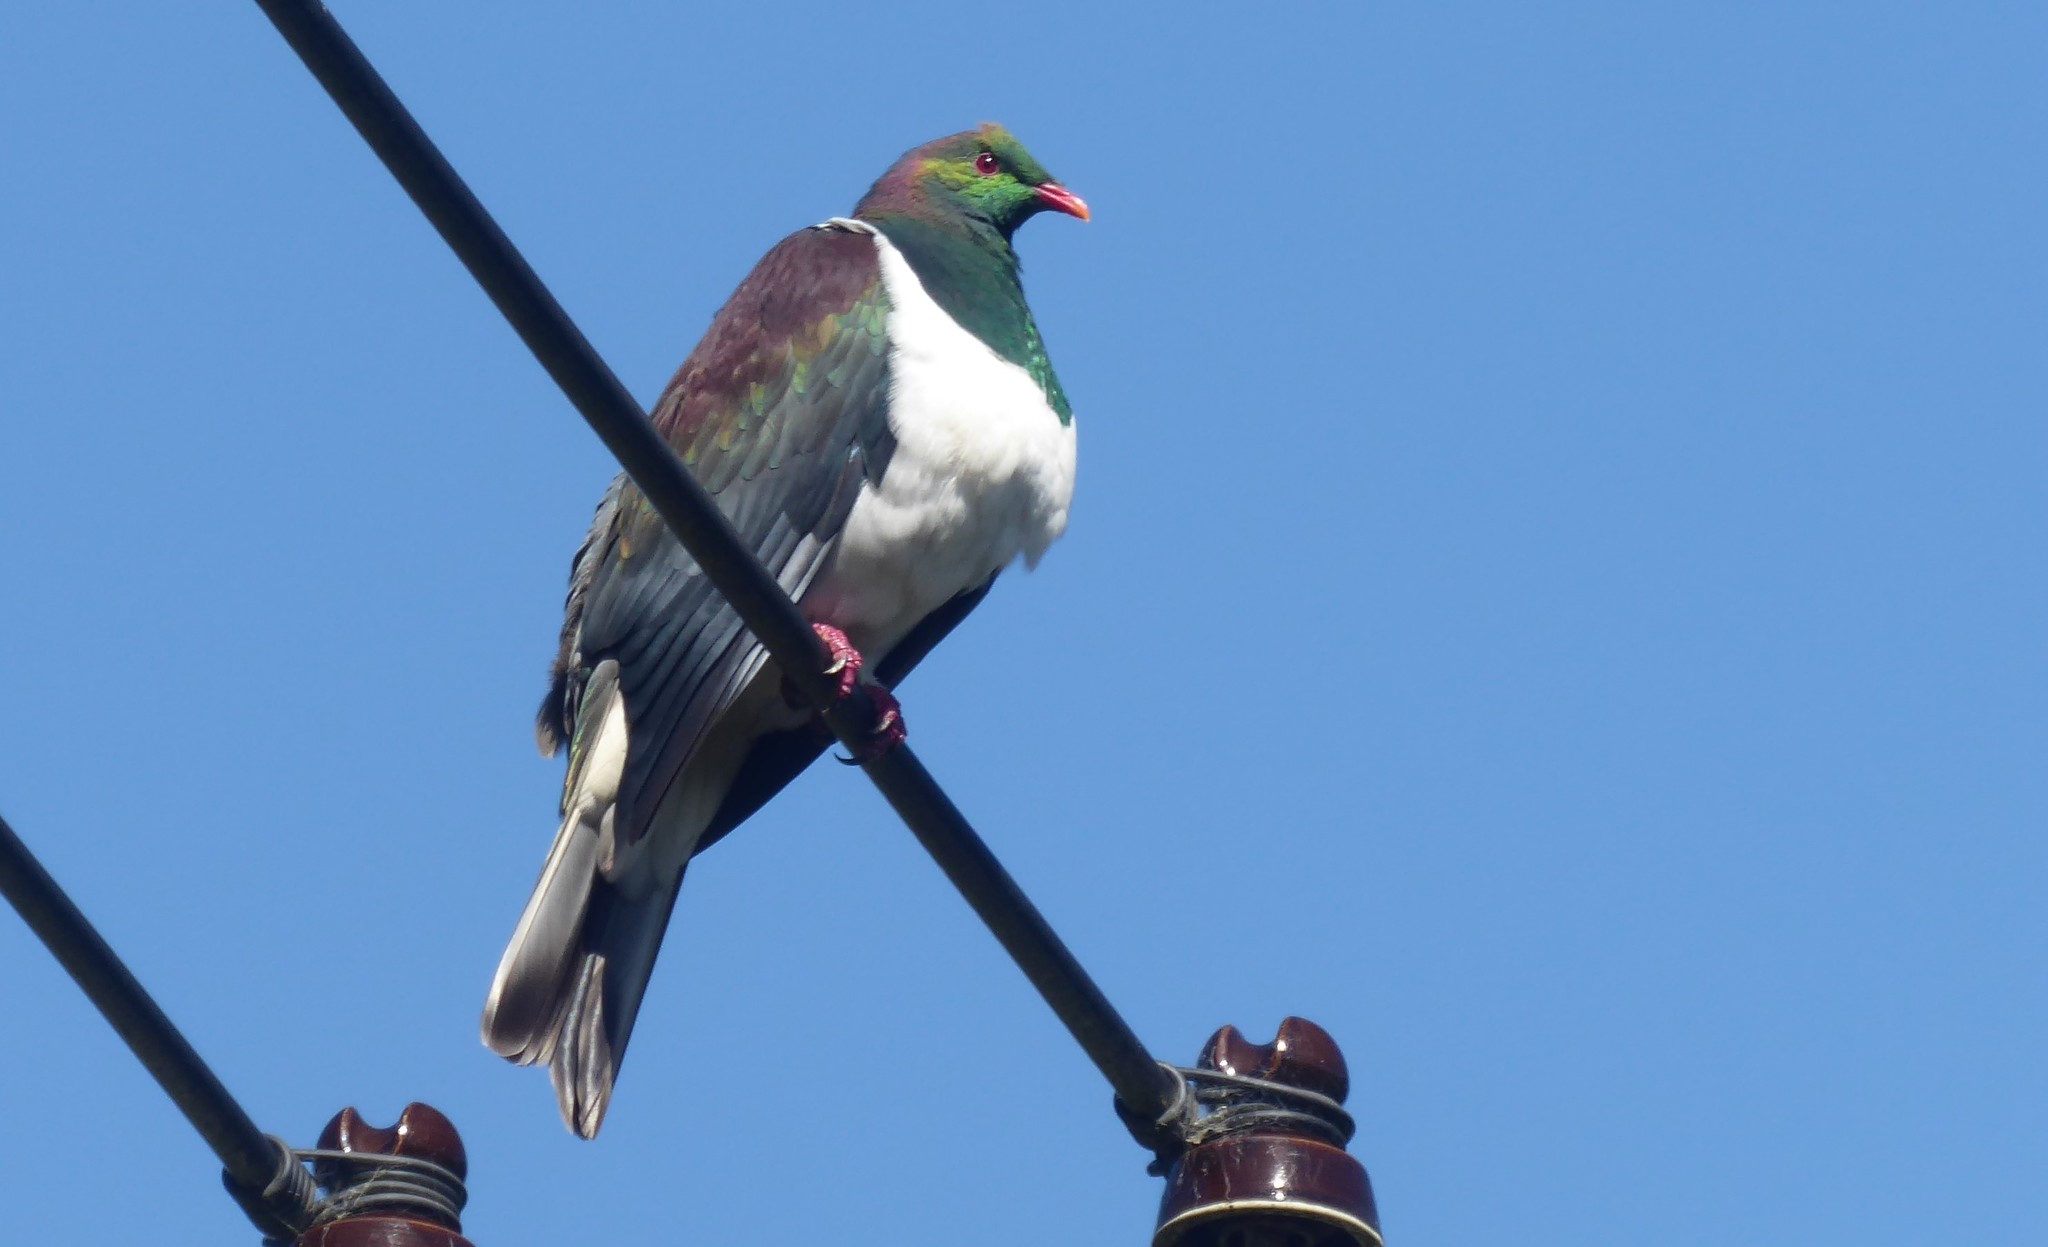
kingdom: Animalia
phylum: Chordata
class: Aves
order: Columbiformes
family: Columbidae
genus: Hemiphaga
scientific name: Hemiphaga novaeseelandiae
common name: New zealand pigeon
